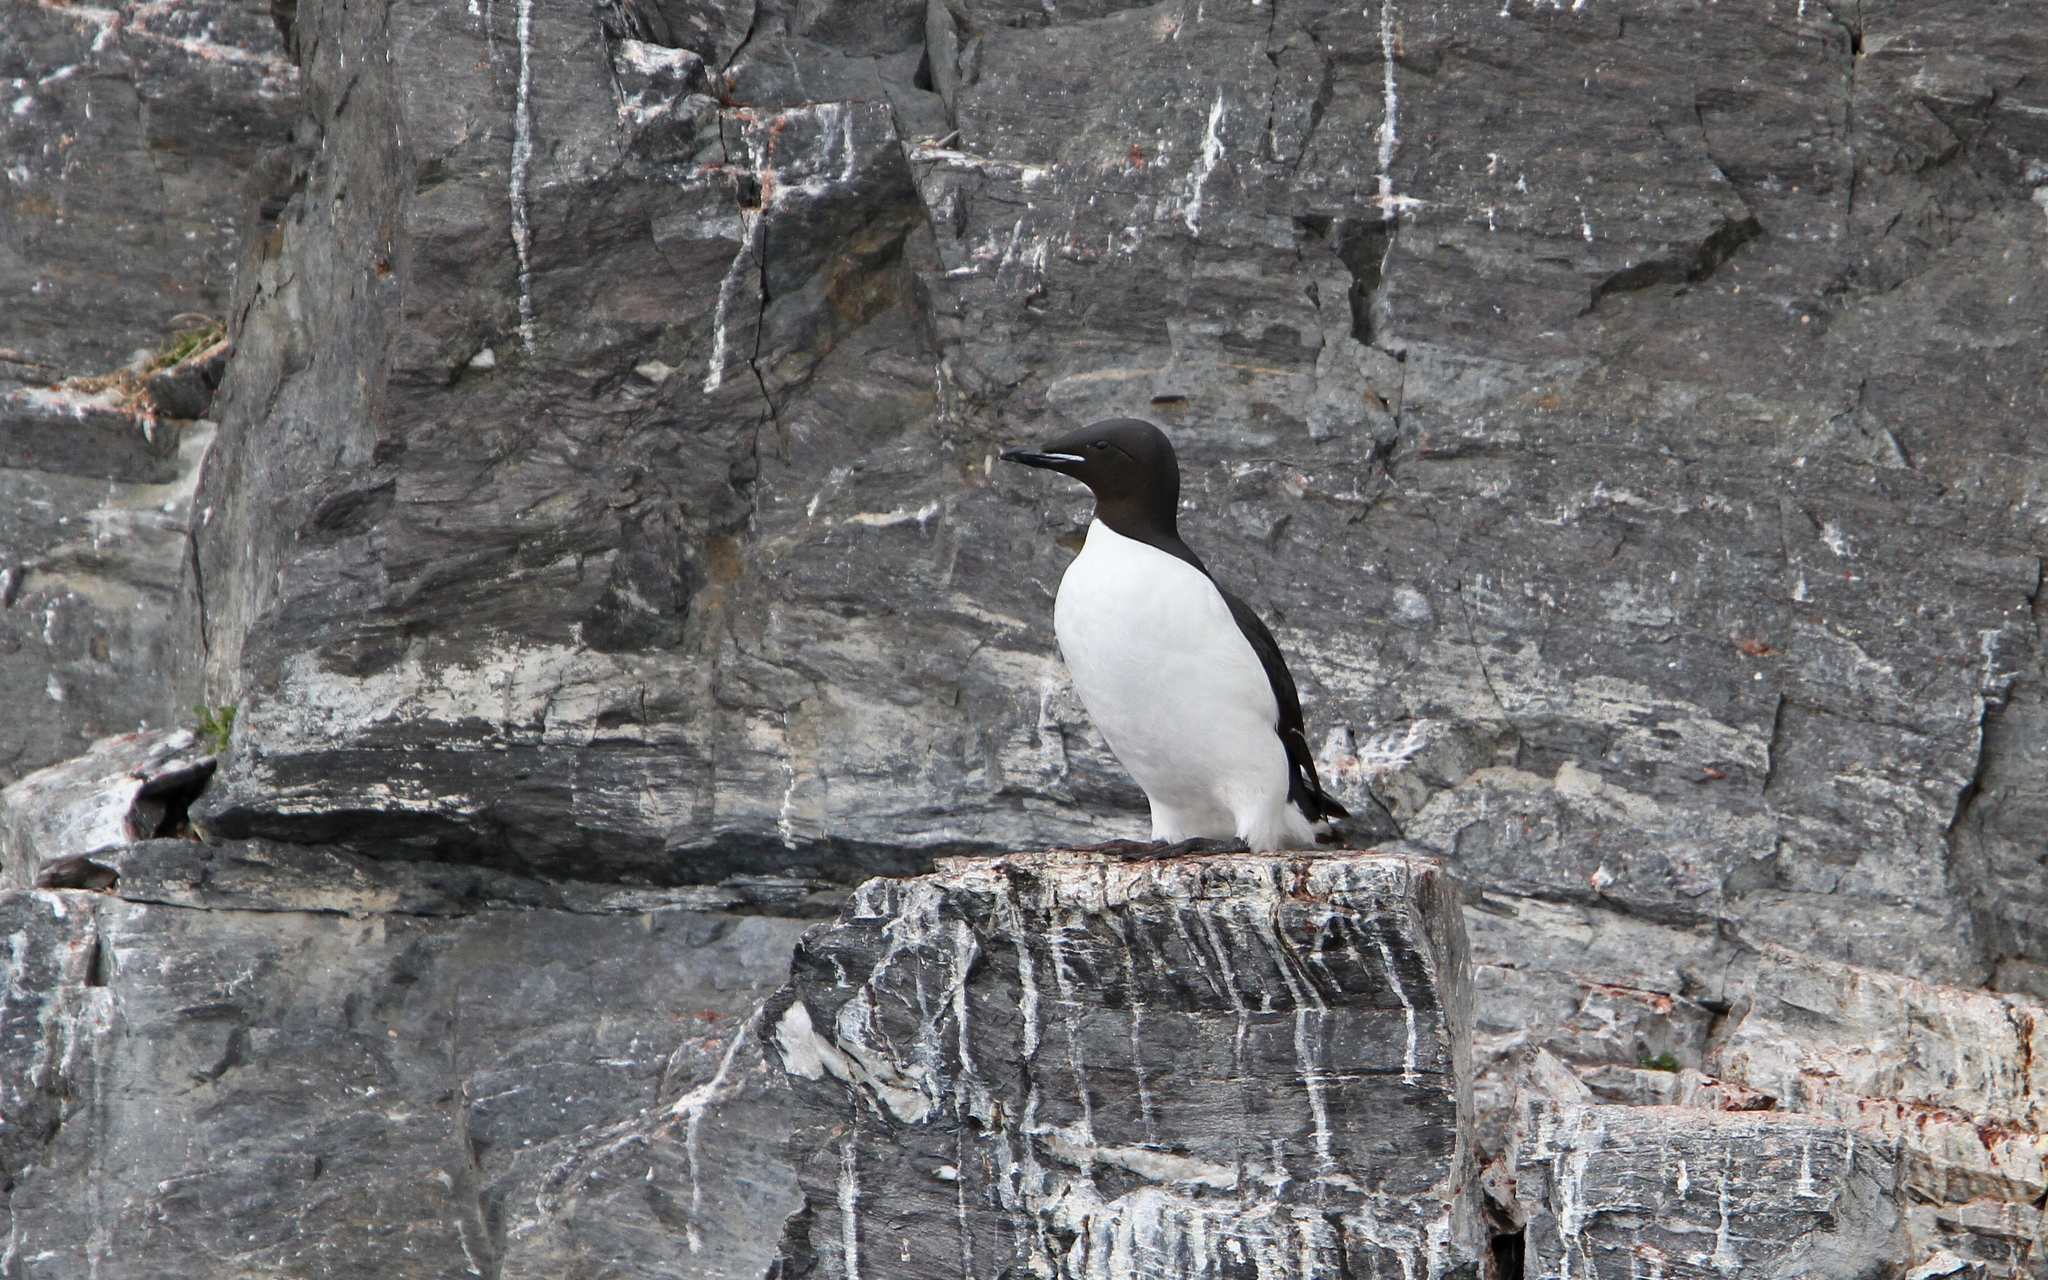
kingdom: Animalia
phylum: Chordata
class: Aves
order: Charadriiformes
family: Alcidae
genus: Uria
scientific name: Uria lomvia
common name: Thick-billed murre
